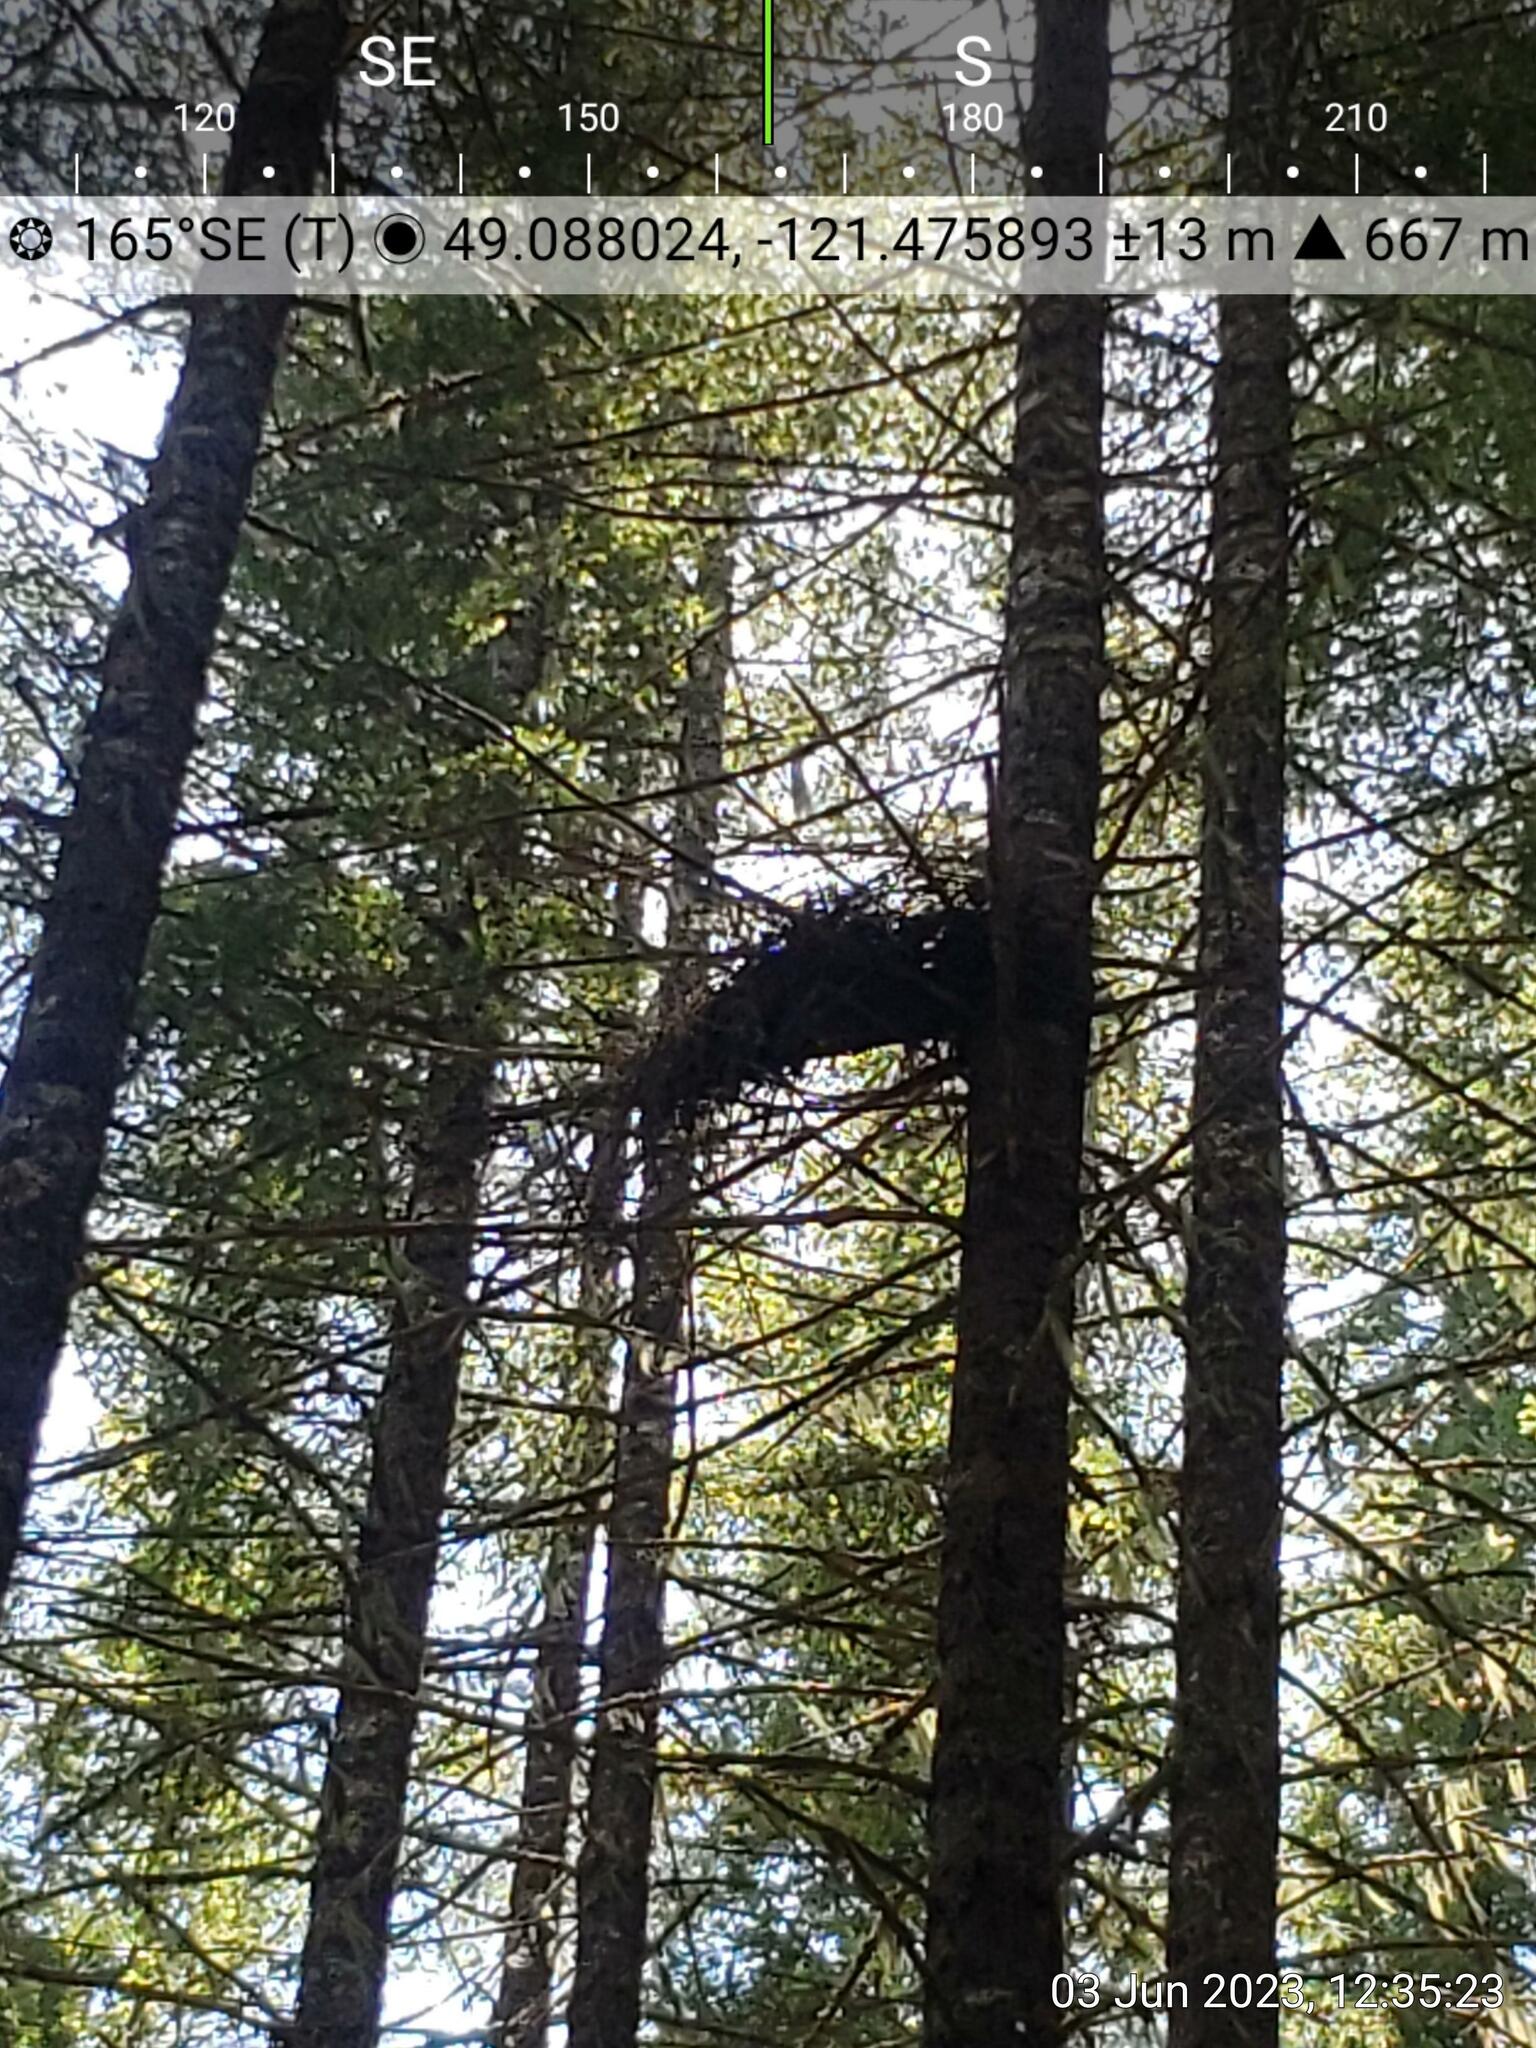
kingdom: Animalia
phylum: Chordata
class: Aves
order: Accipitriformes
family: Accipitridae
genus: Accipiter
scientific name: Accipiter gentilis
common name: Northern goshawk
